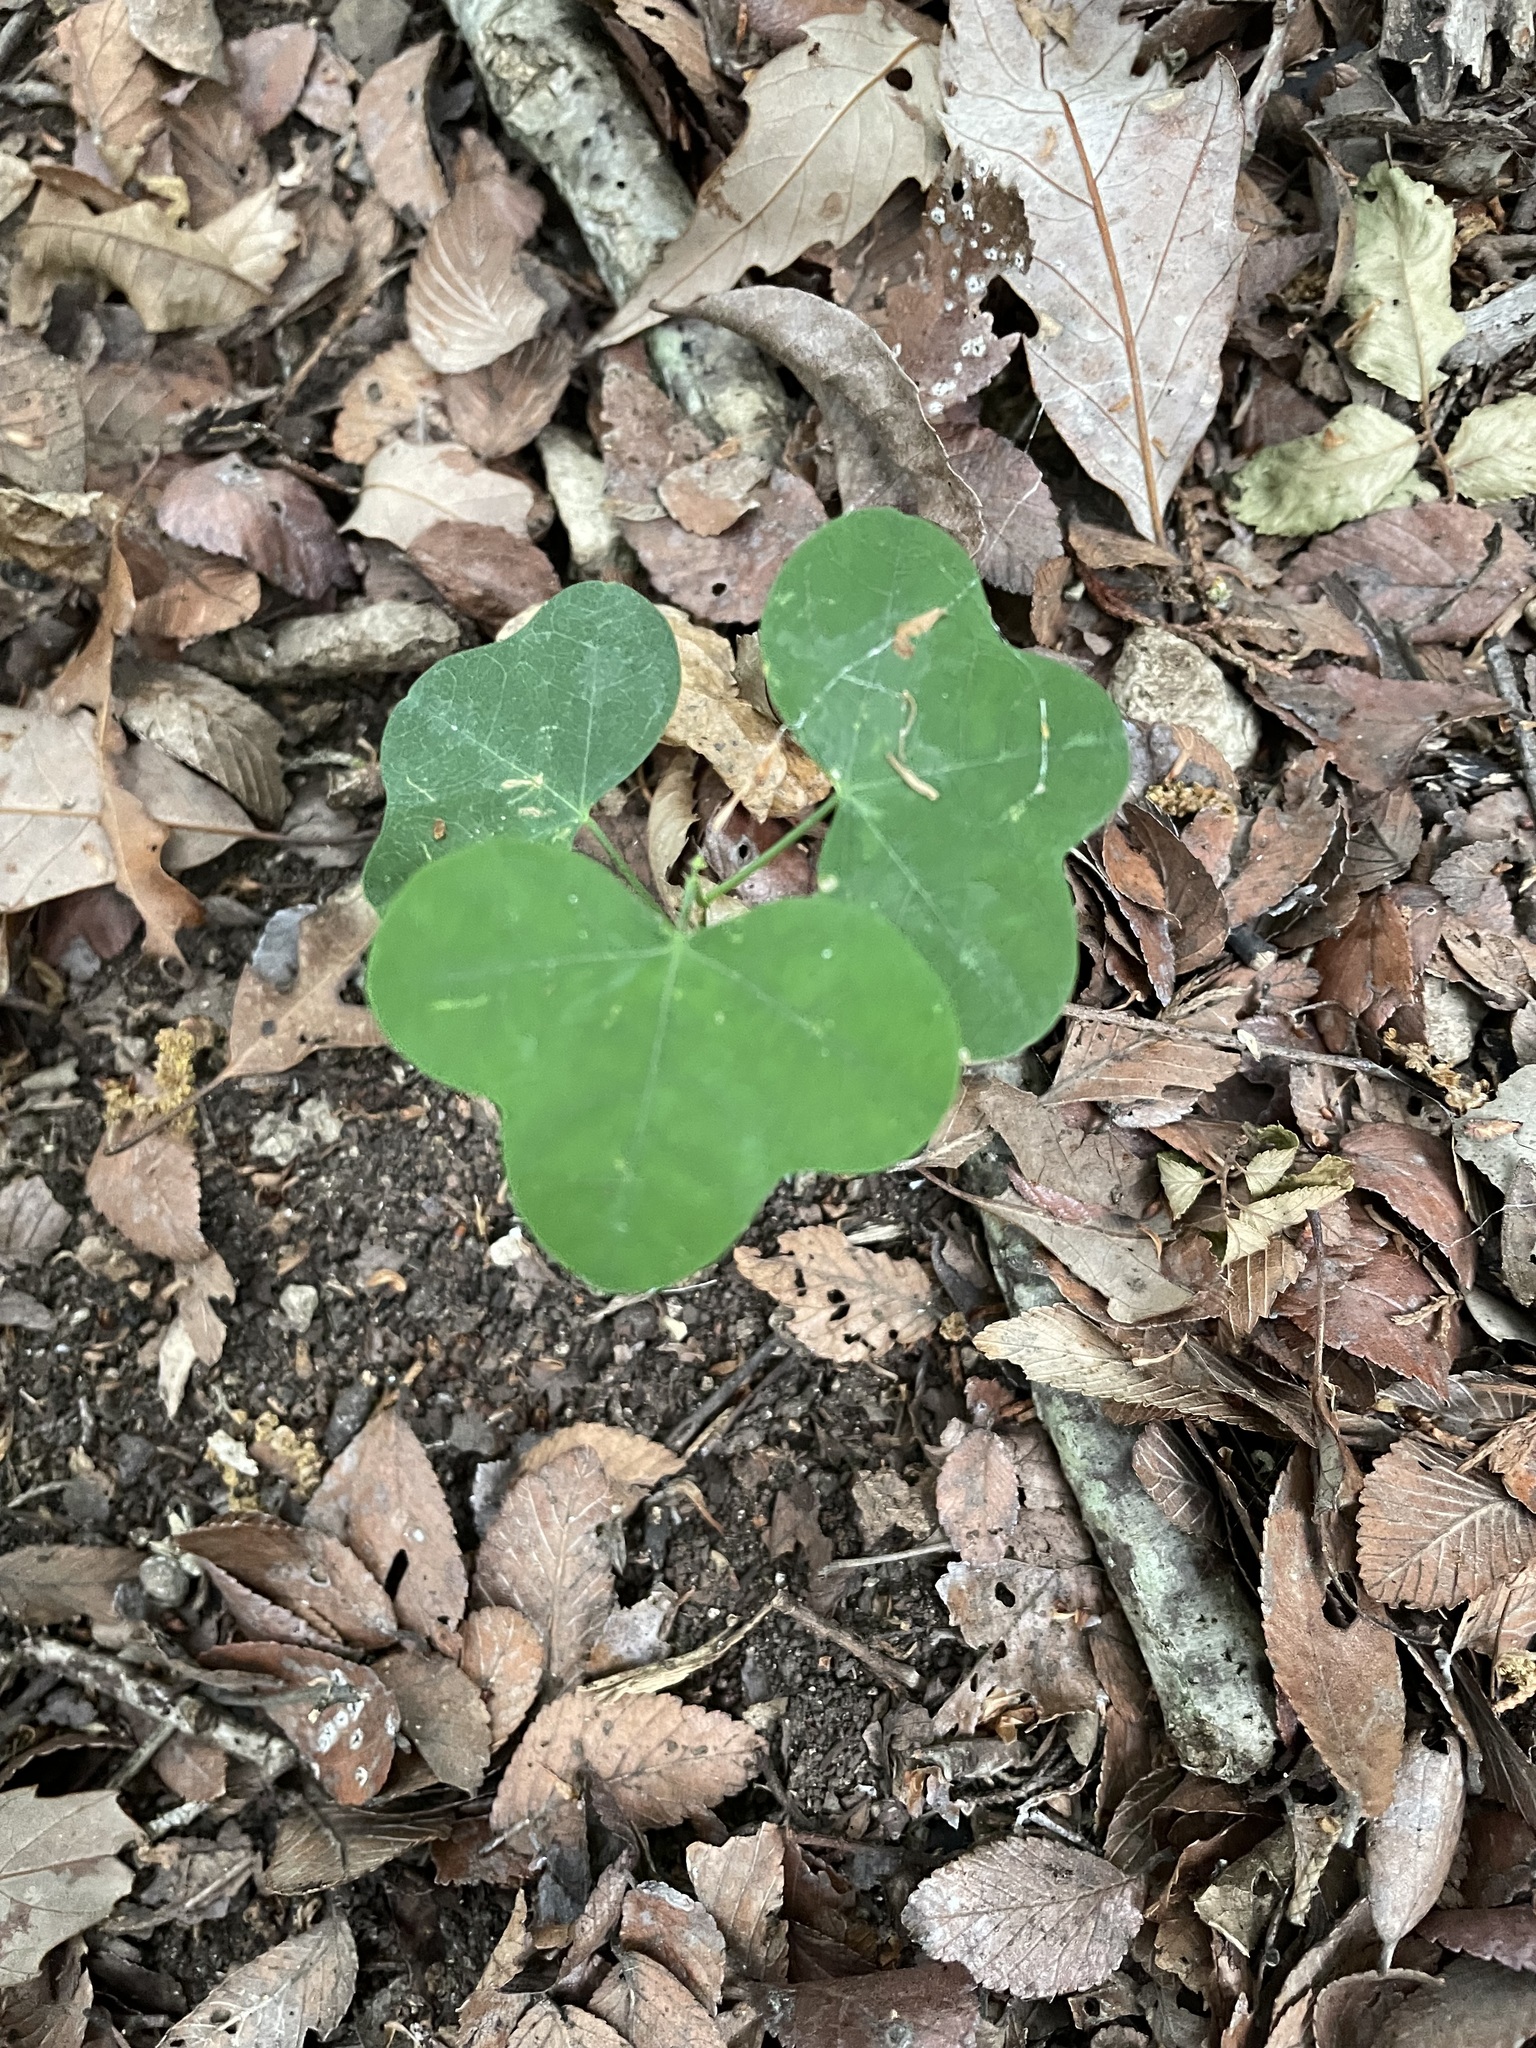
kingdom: Plantae
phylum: Tracheophyta
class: Magnoliopsida
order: Malpighiales
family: Passifloraceae
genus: Passiflora
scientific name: Passiflora lutea
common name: Yellow passionflower
